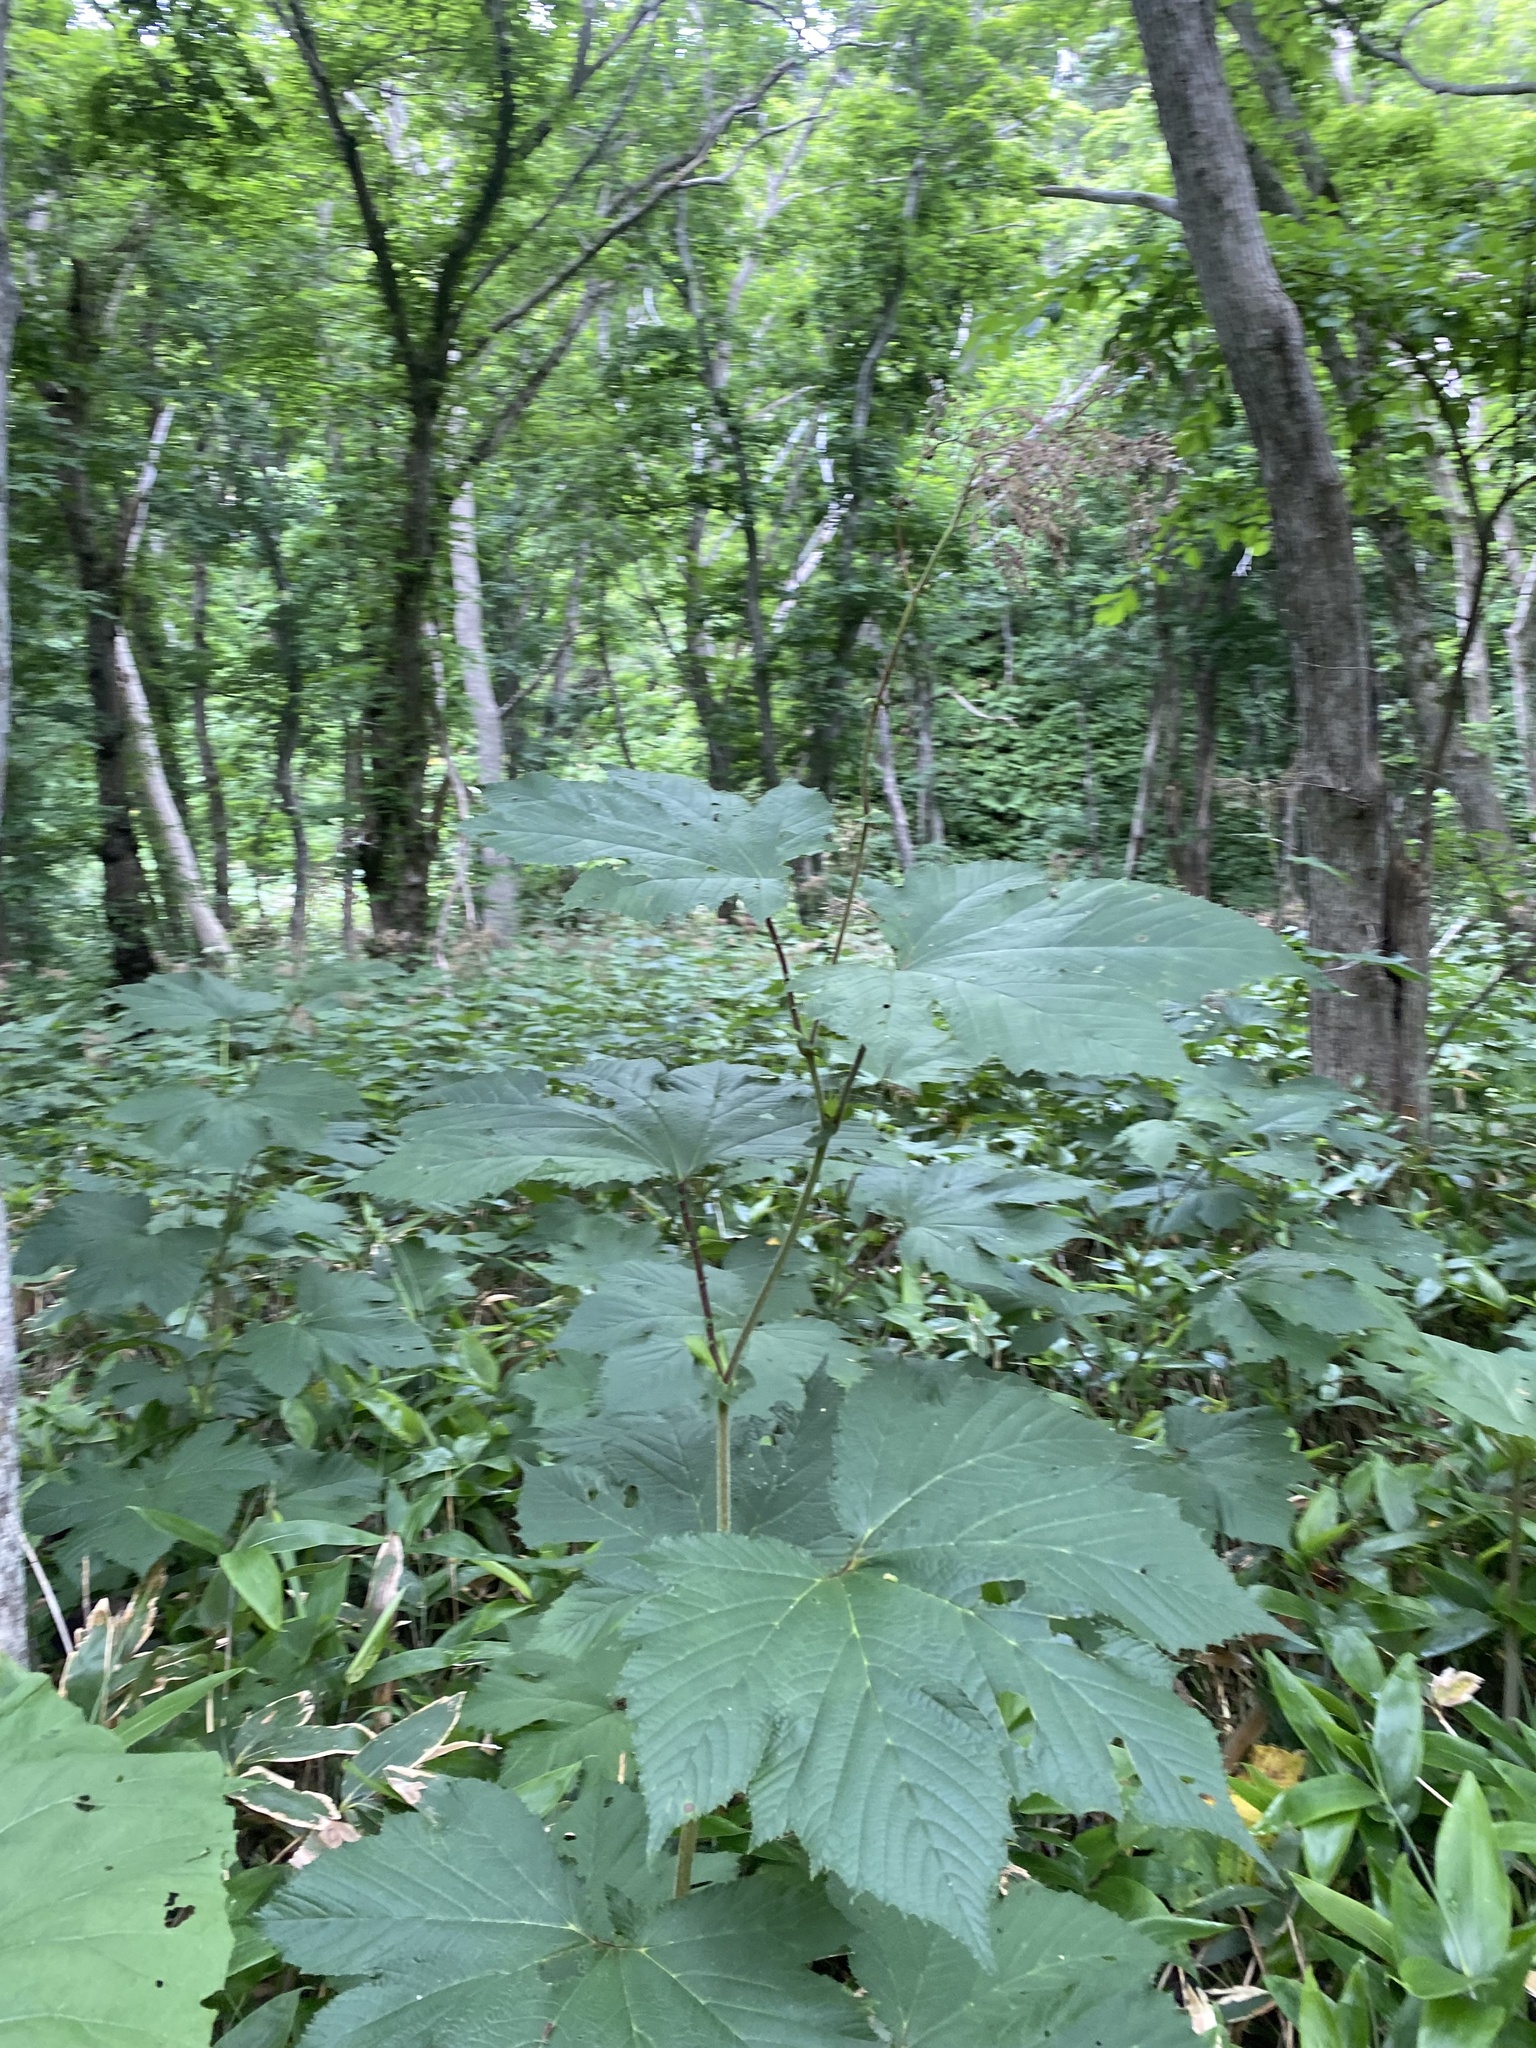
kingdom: Plantae
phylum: Tracheophyta
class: Magnoliopsida
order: Rosales
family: Rosaceae
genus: Filipendula
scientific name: Filipendula camtschatica
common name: Giant meadowsweet
